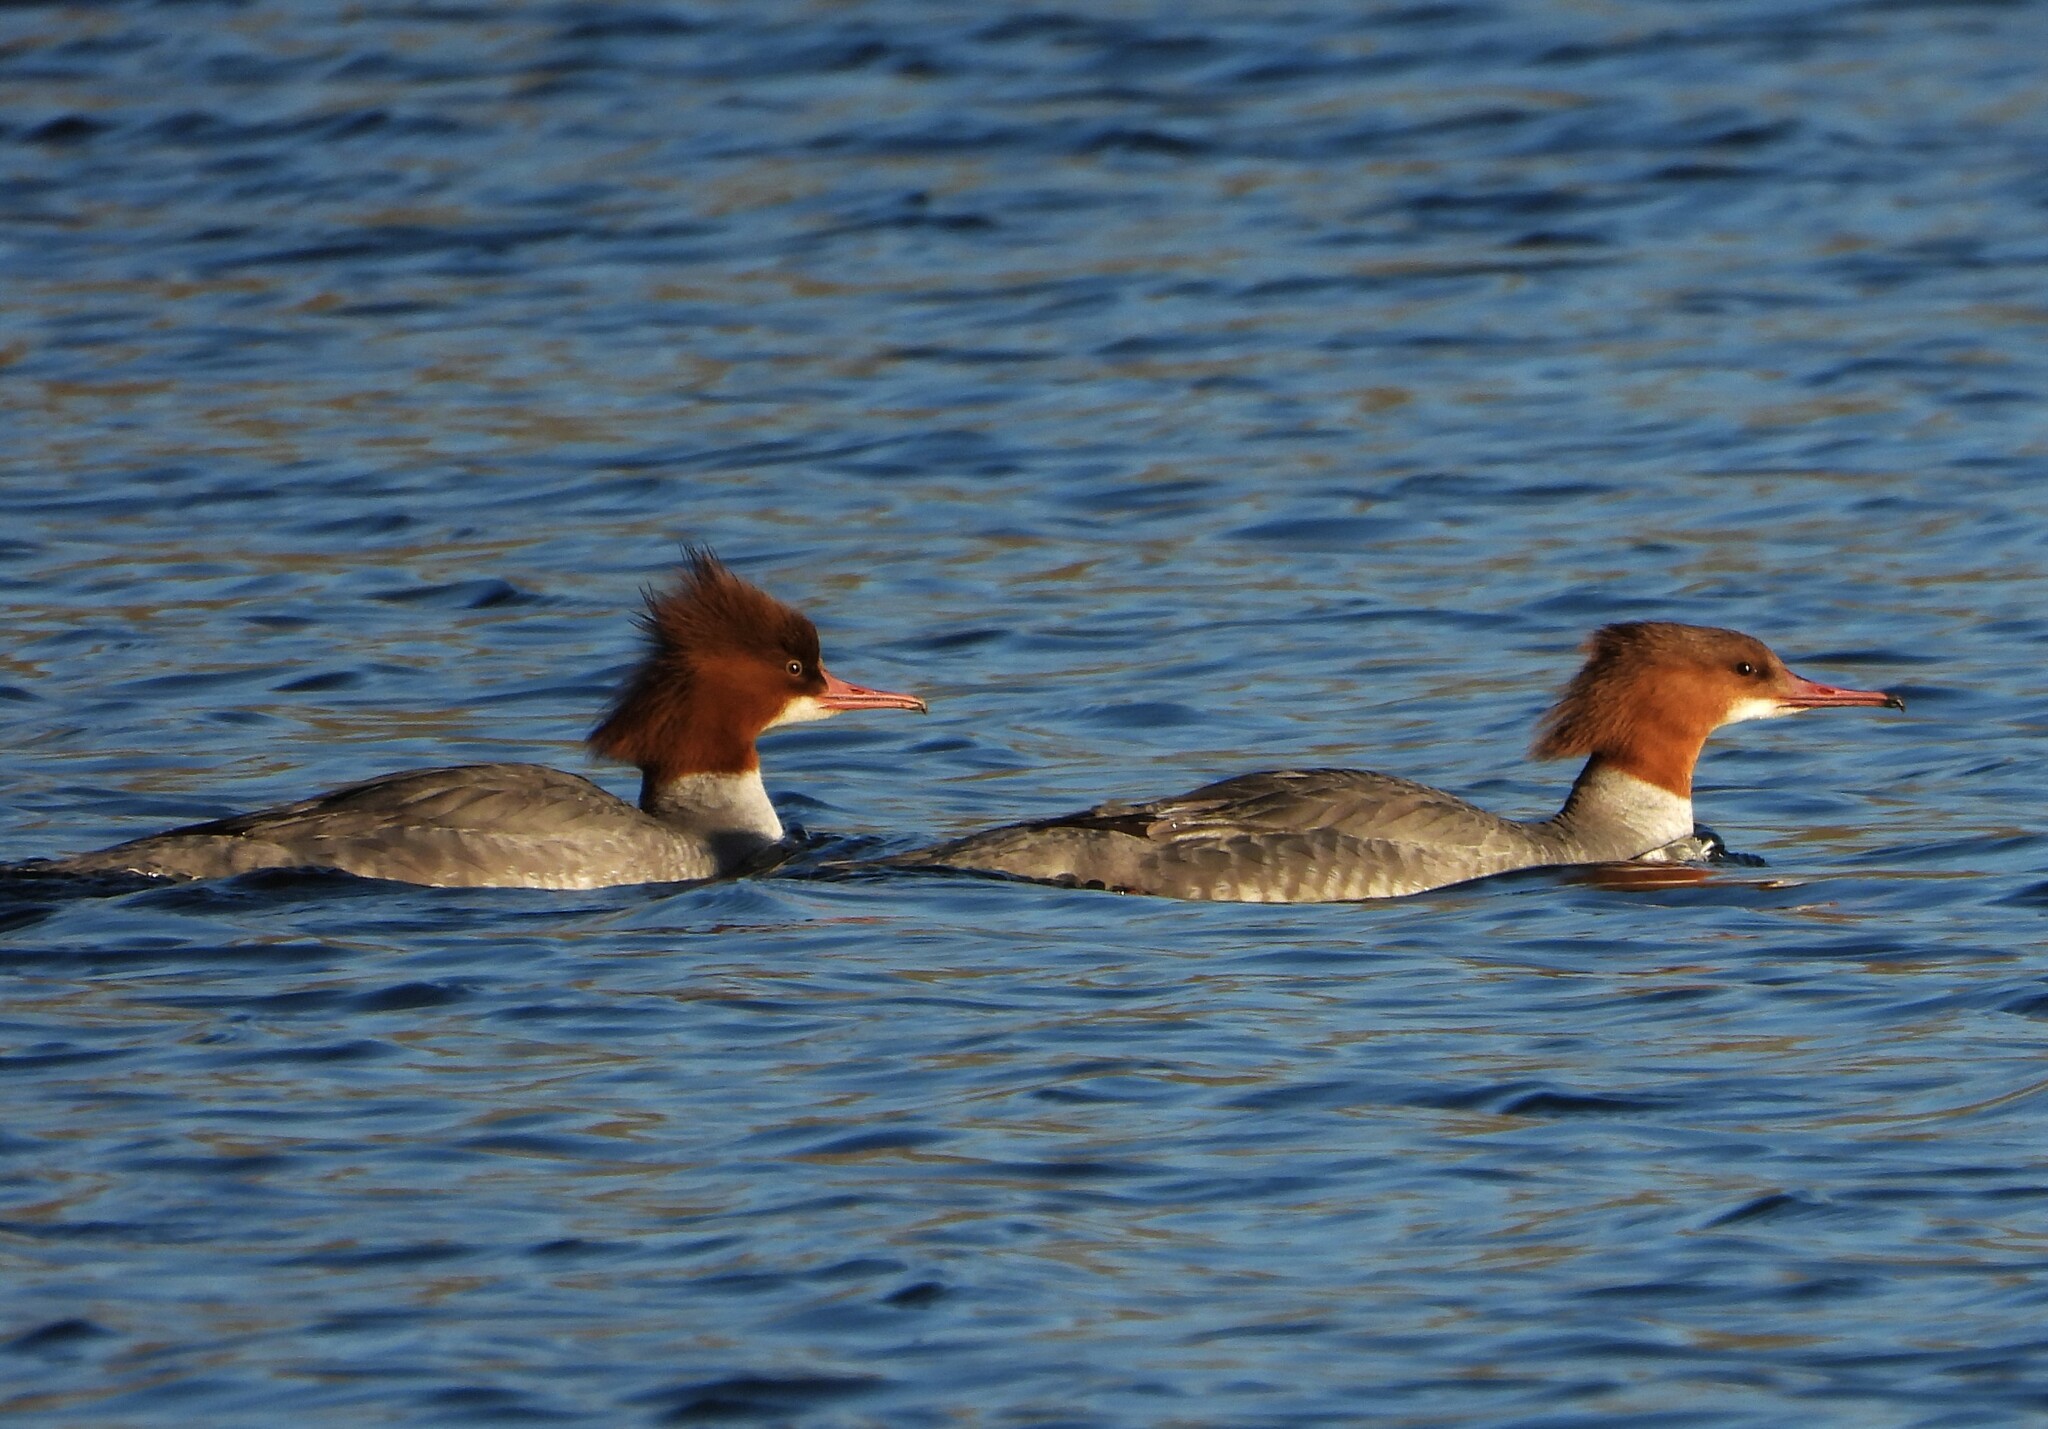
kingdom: Animalia
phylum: Chordata
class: Aves
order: Anseriformes
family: Anatidae
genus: Mergus
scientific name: Mergus merganser
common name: Common merganser
